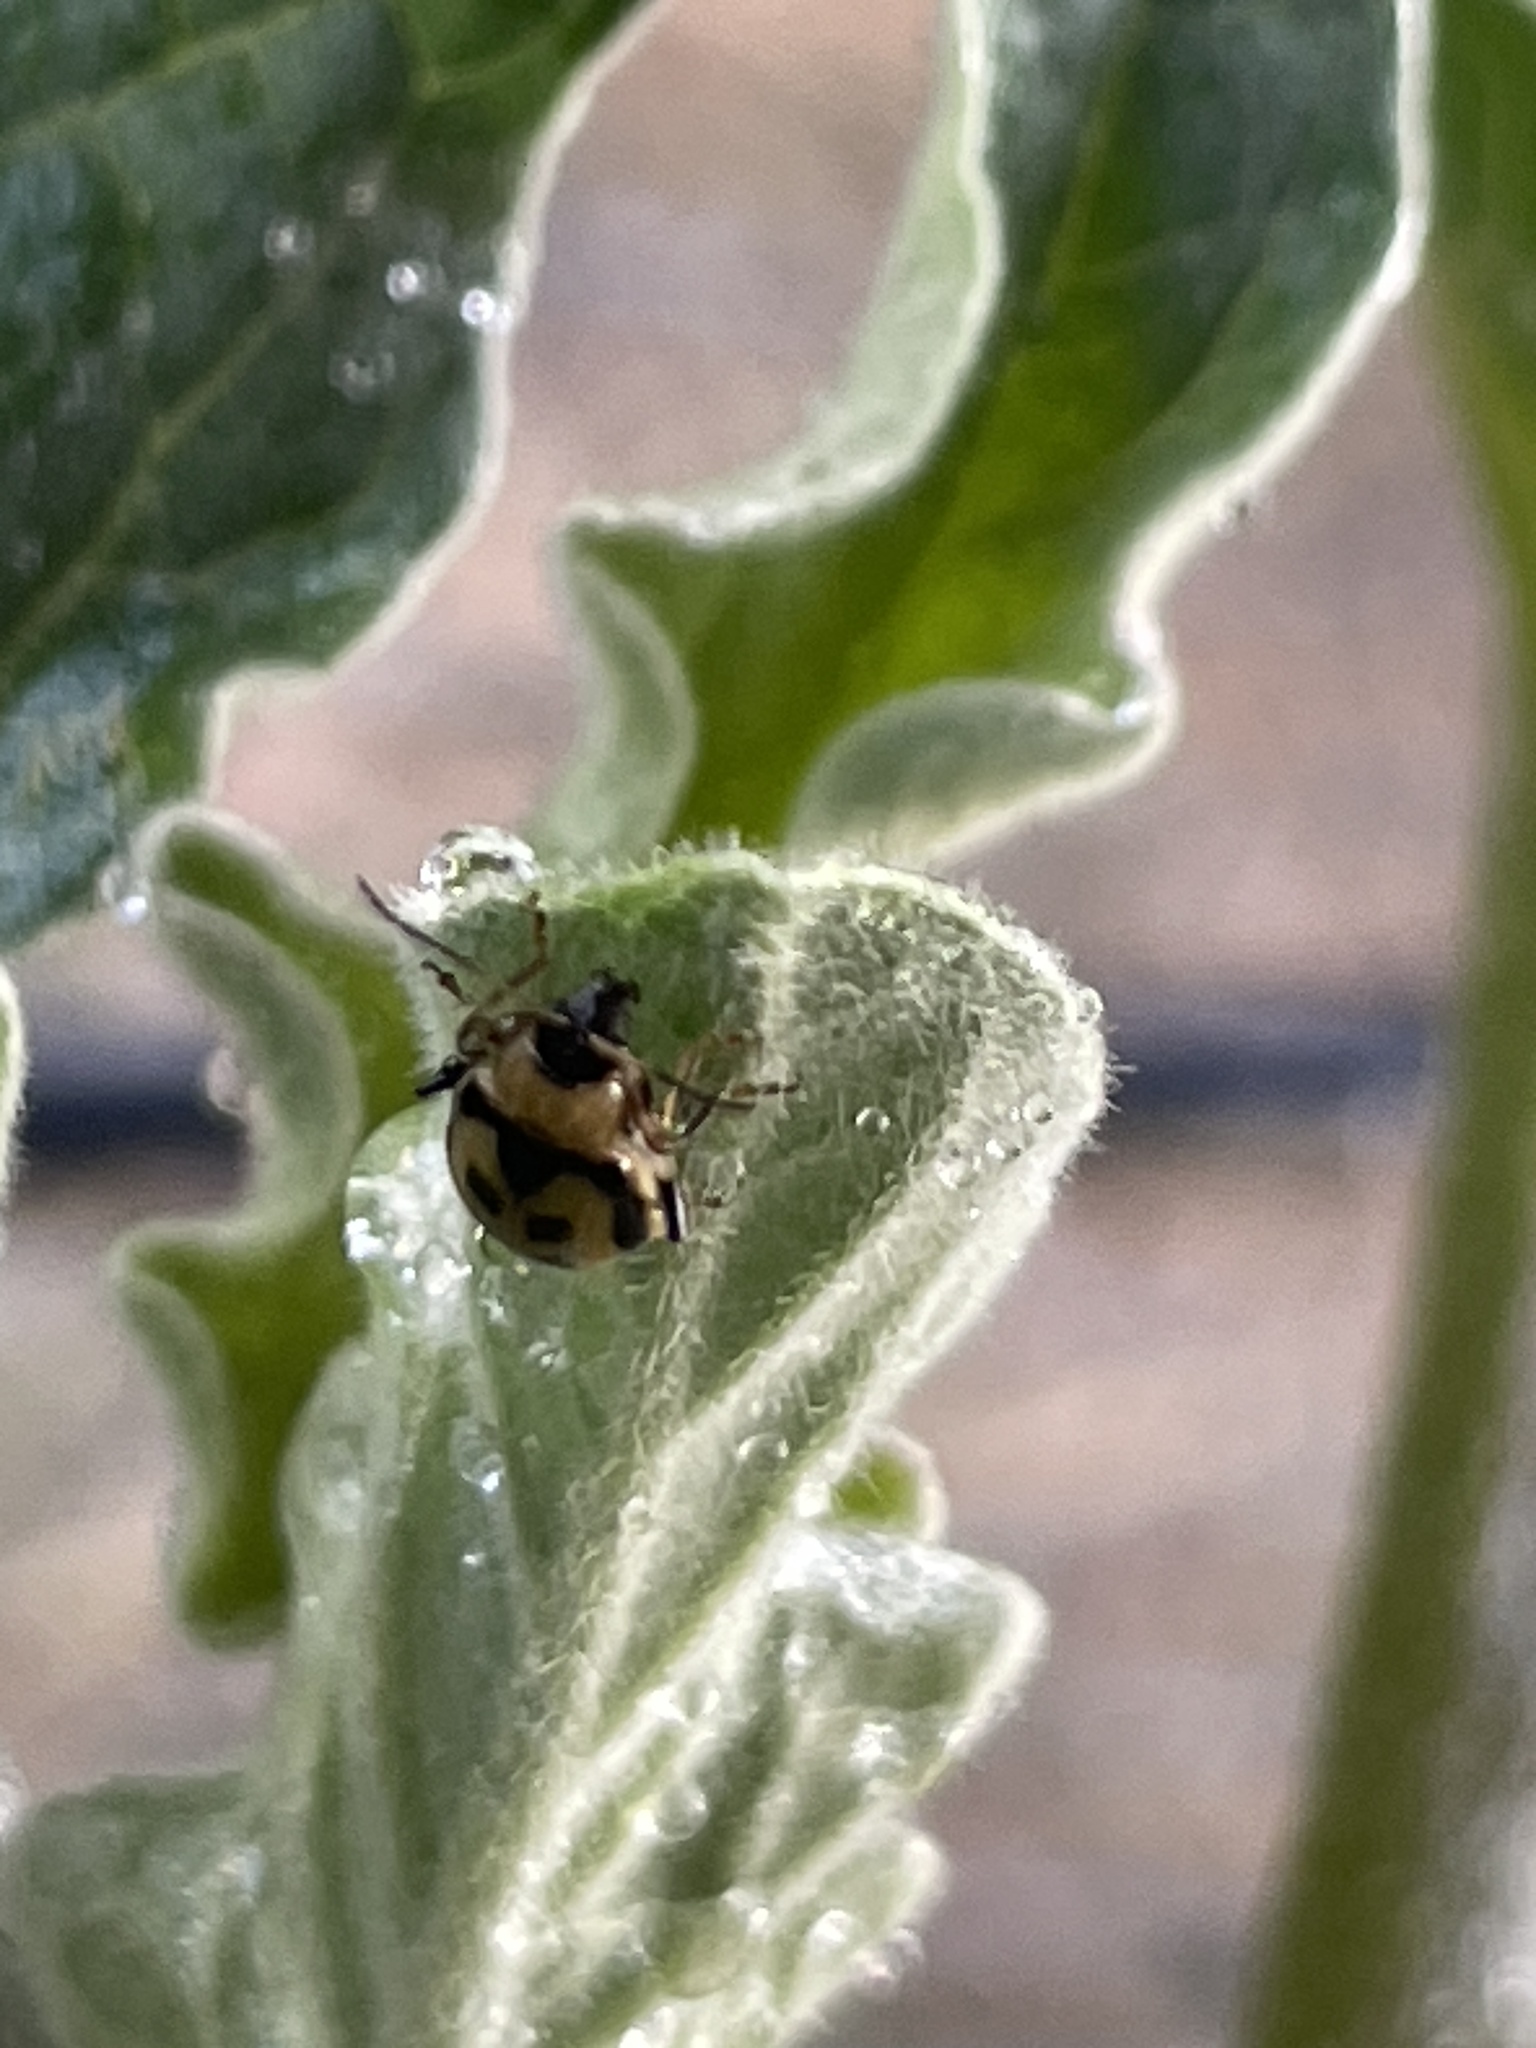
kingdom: Animalia
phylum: Arthropoda
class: Insecta
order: Coleoptera
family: Chrysomelidae
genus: Cerotoma
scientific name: Cerotoma trifurcata
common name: Bean leaf beetle
